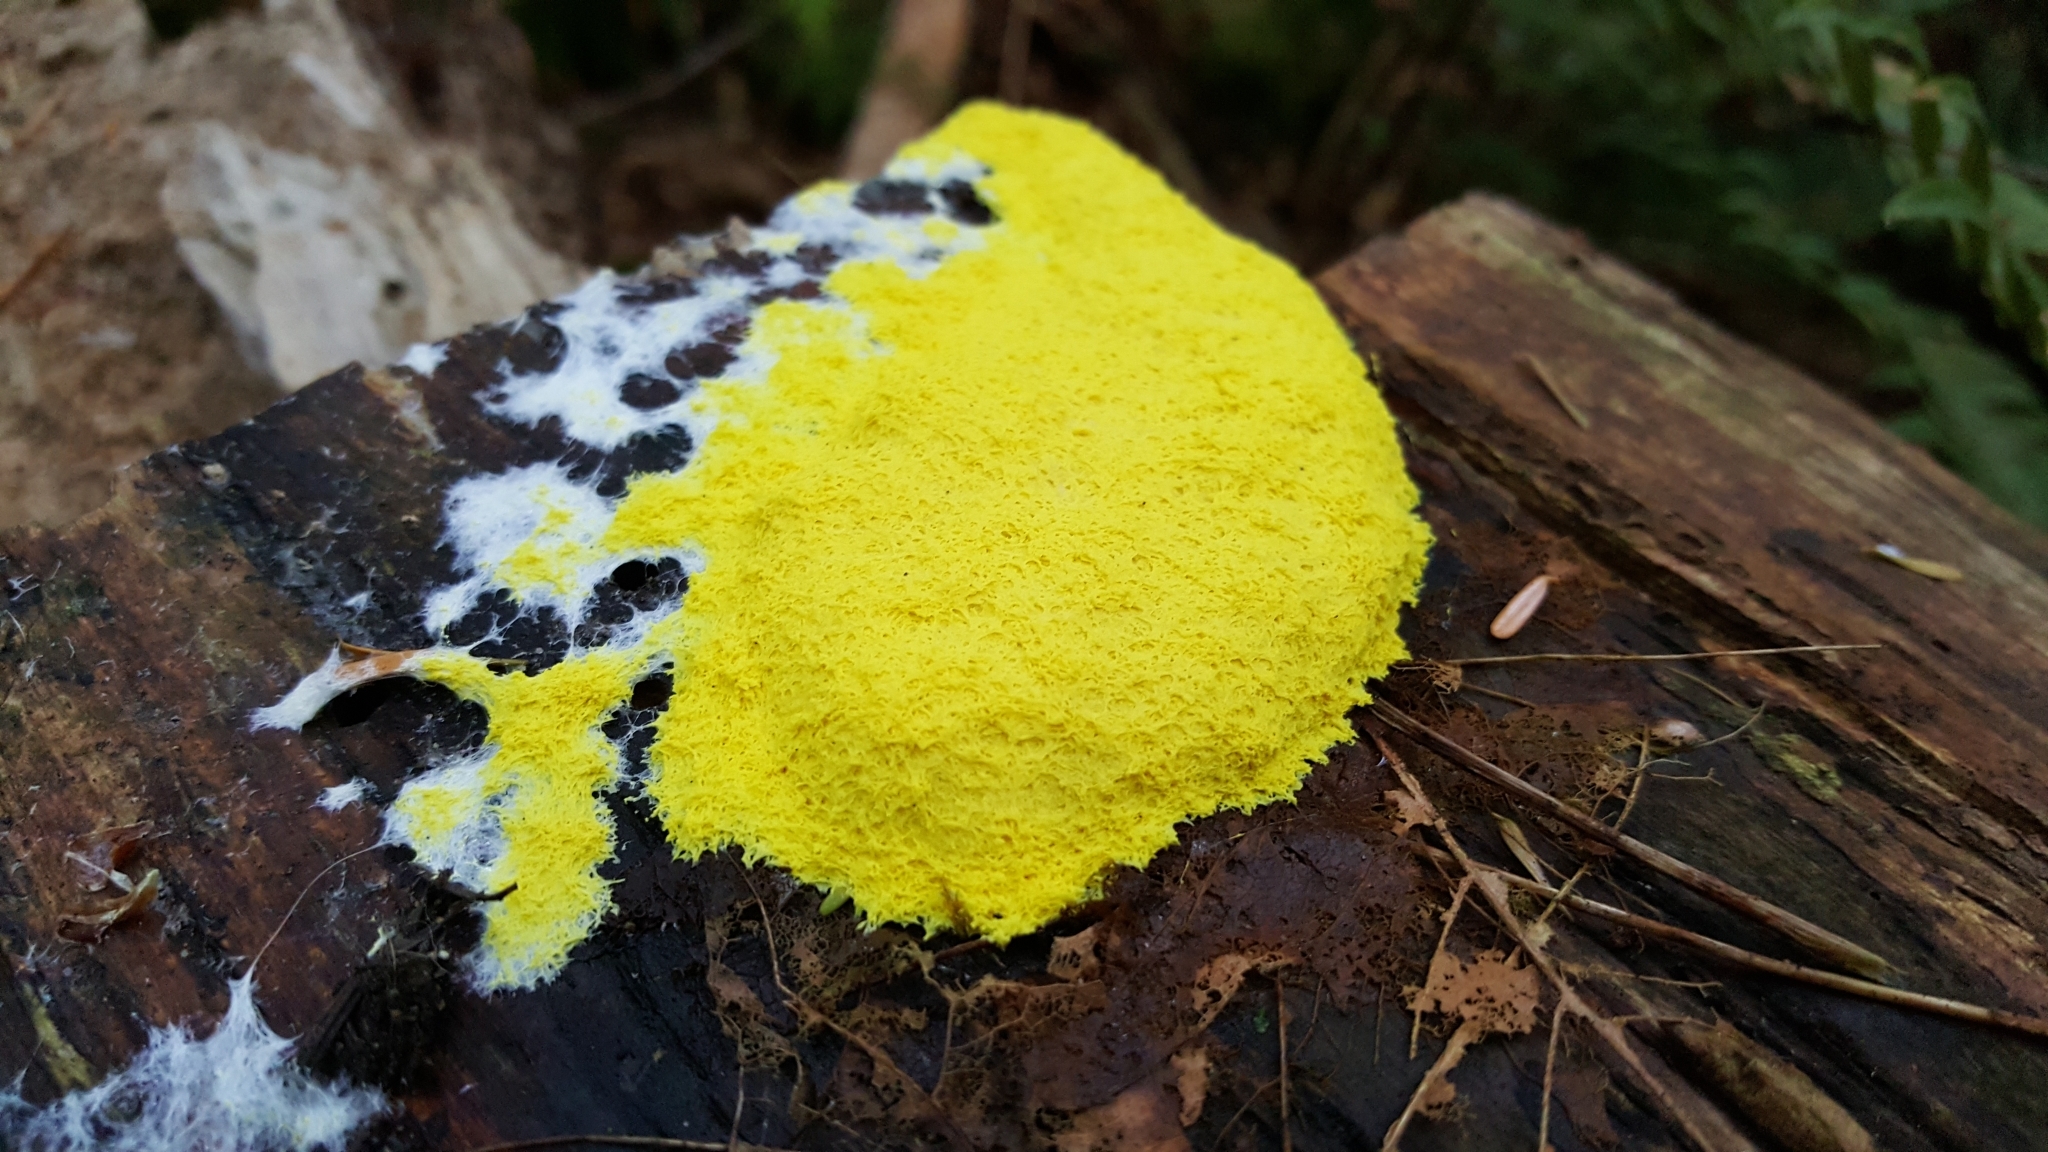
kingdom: Protozoa
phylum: Mycetozoa
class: Myxomycetes
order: Physarales
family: Physaraceae
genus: Fuligo
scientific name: Fuligo septica
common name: Dog vomit slime mold
